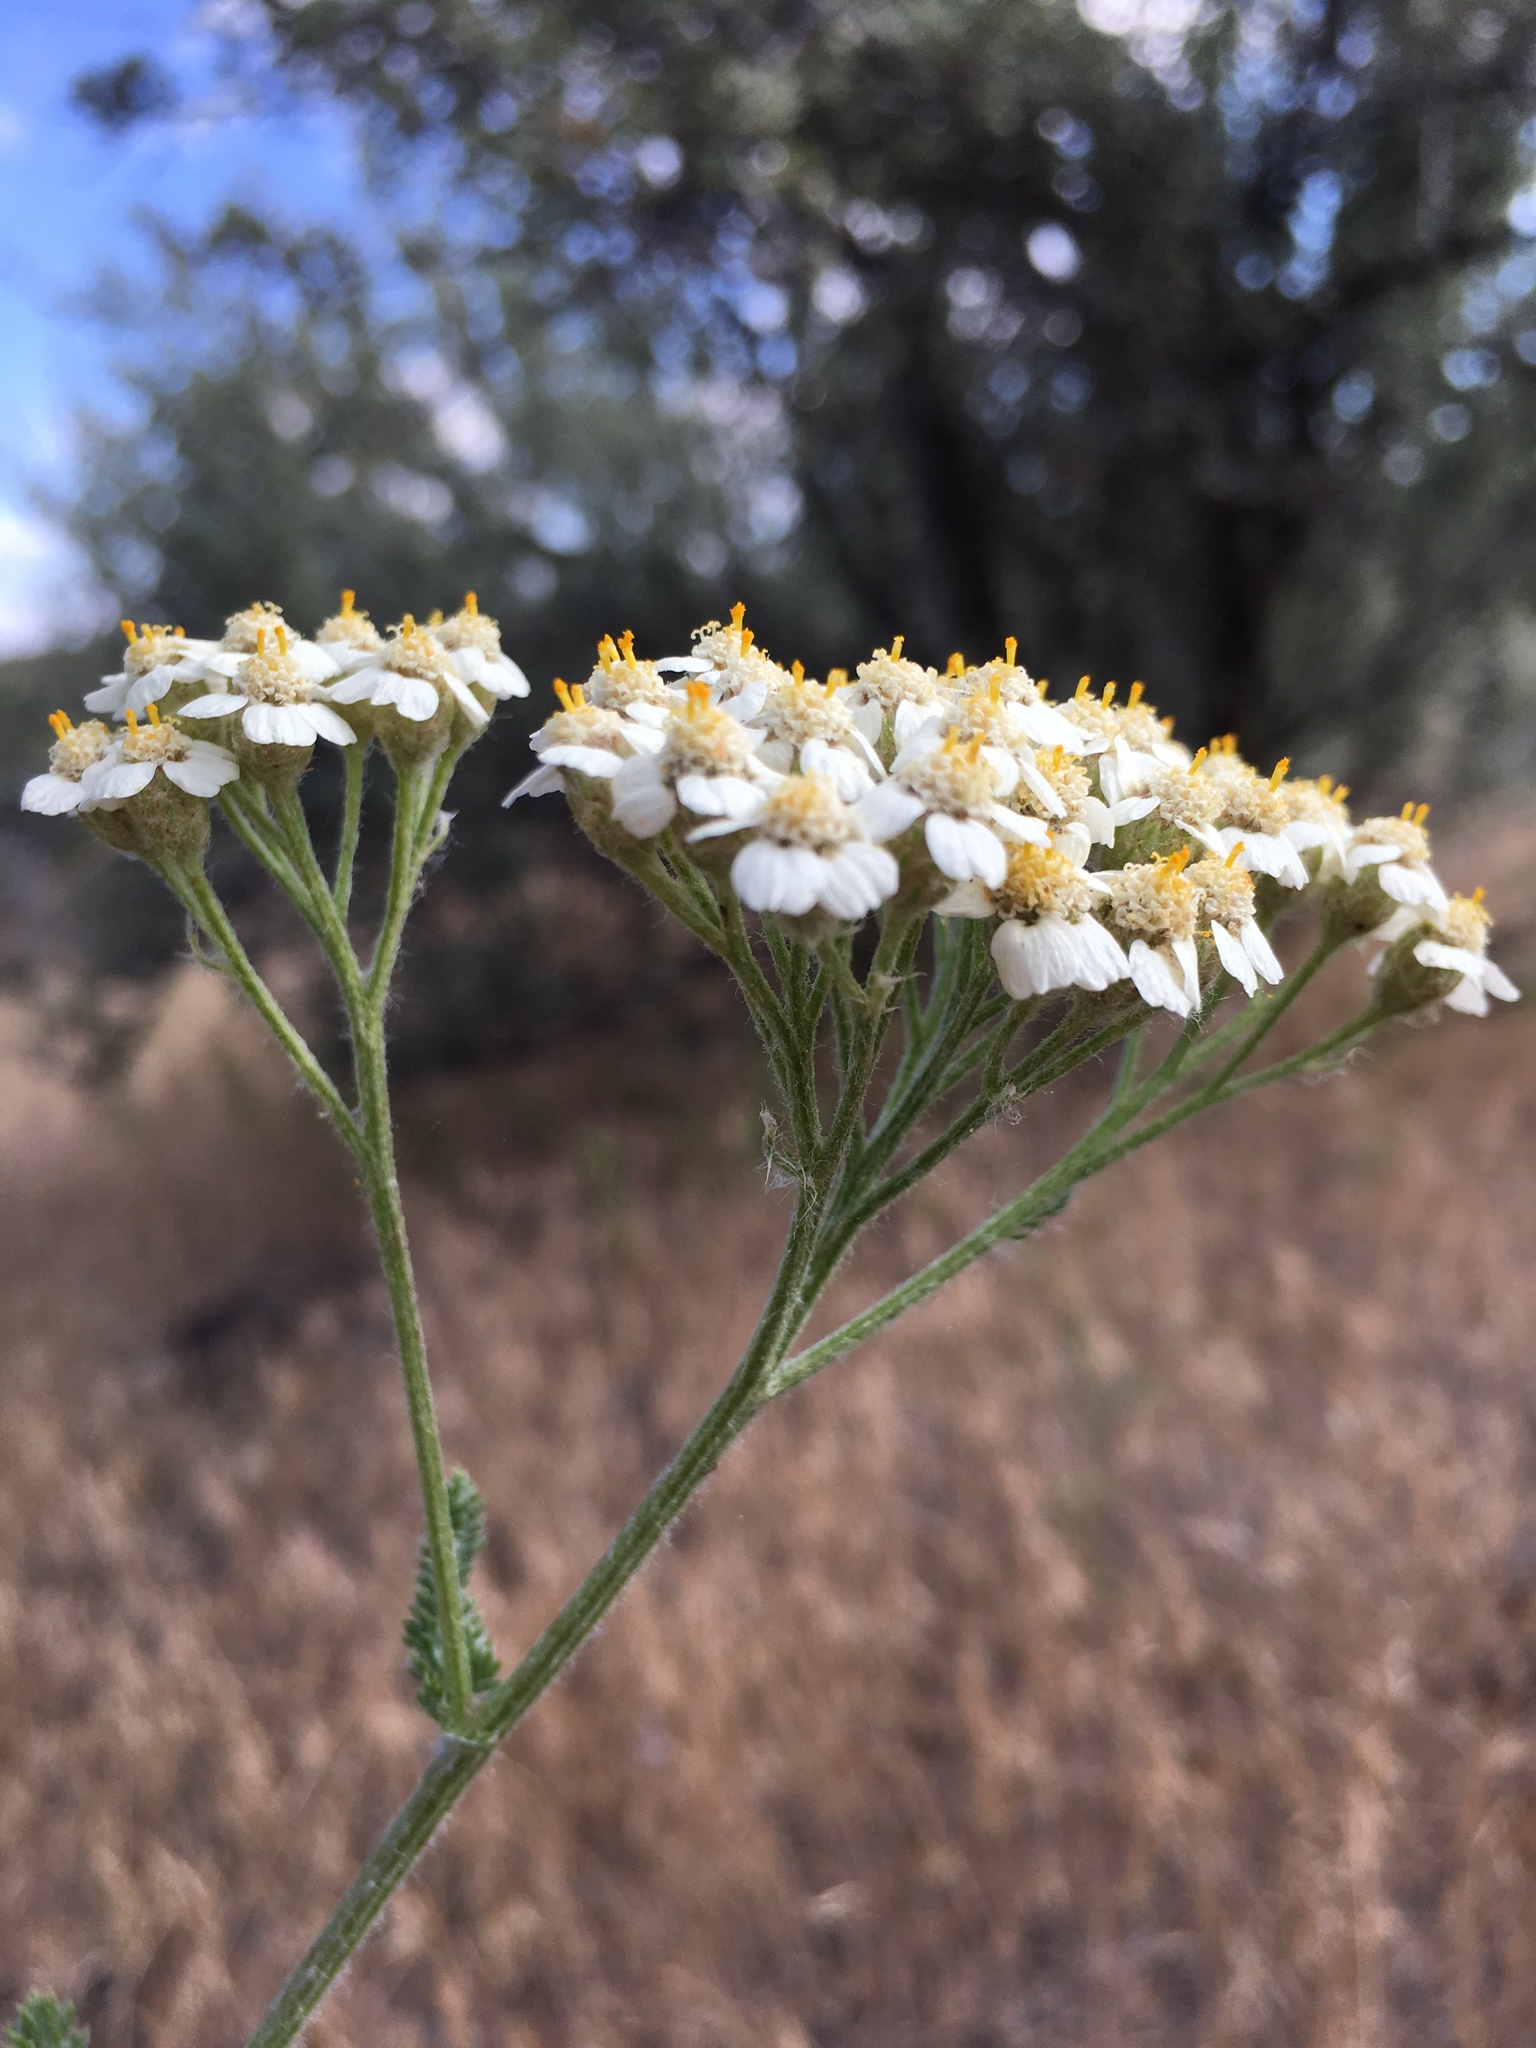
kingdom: Plantae
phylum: Tracheophyta
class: Magnoliopsida
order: Asterales
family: Asteraceae
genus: Achillea
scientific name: Achillea millefolium
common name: Yarrow
